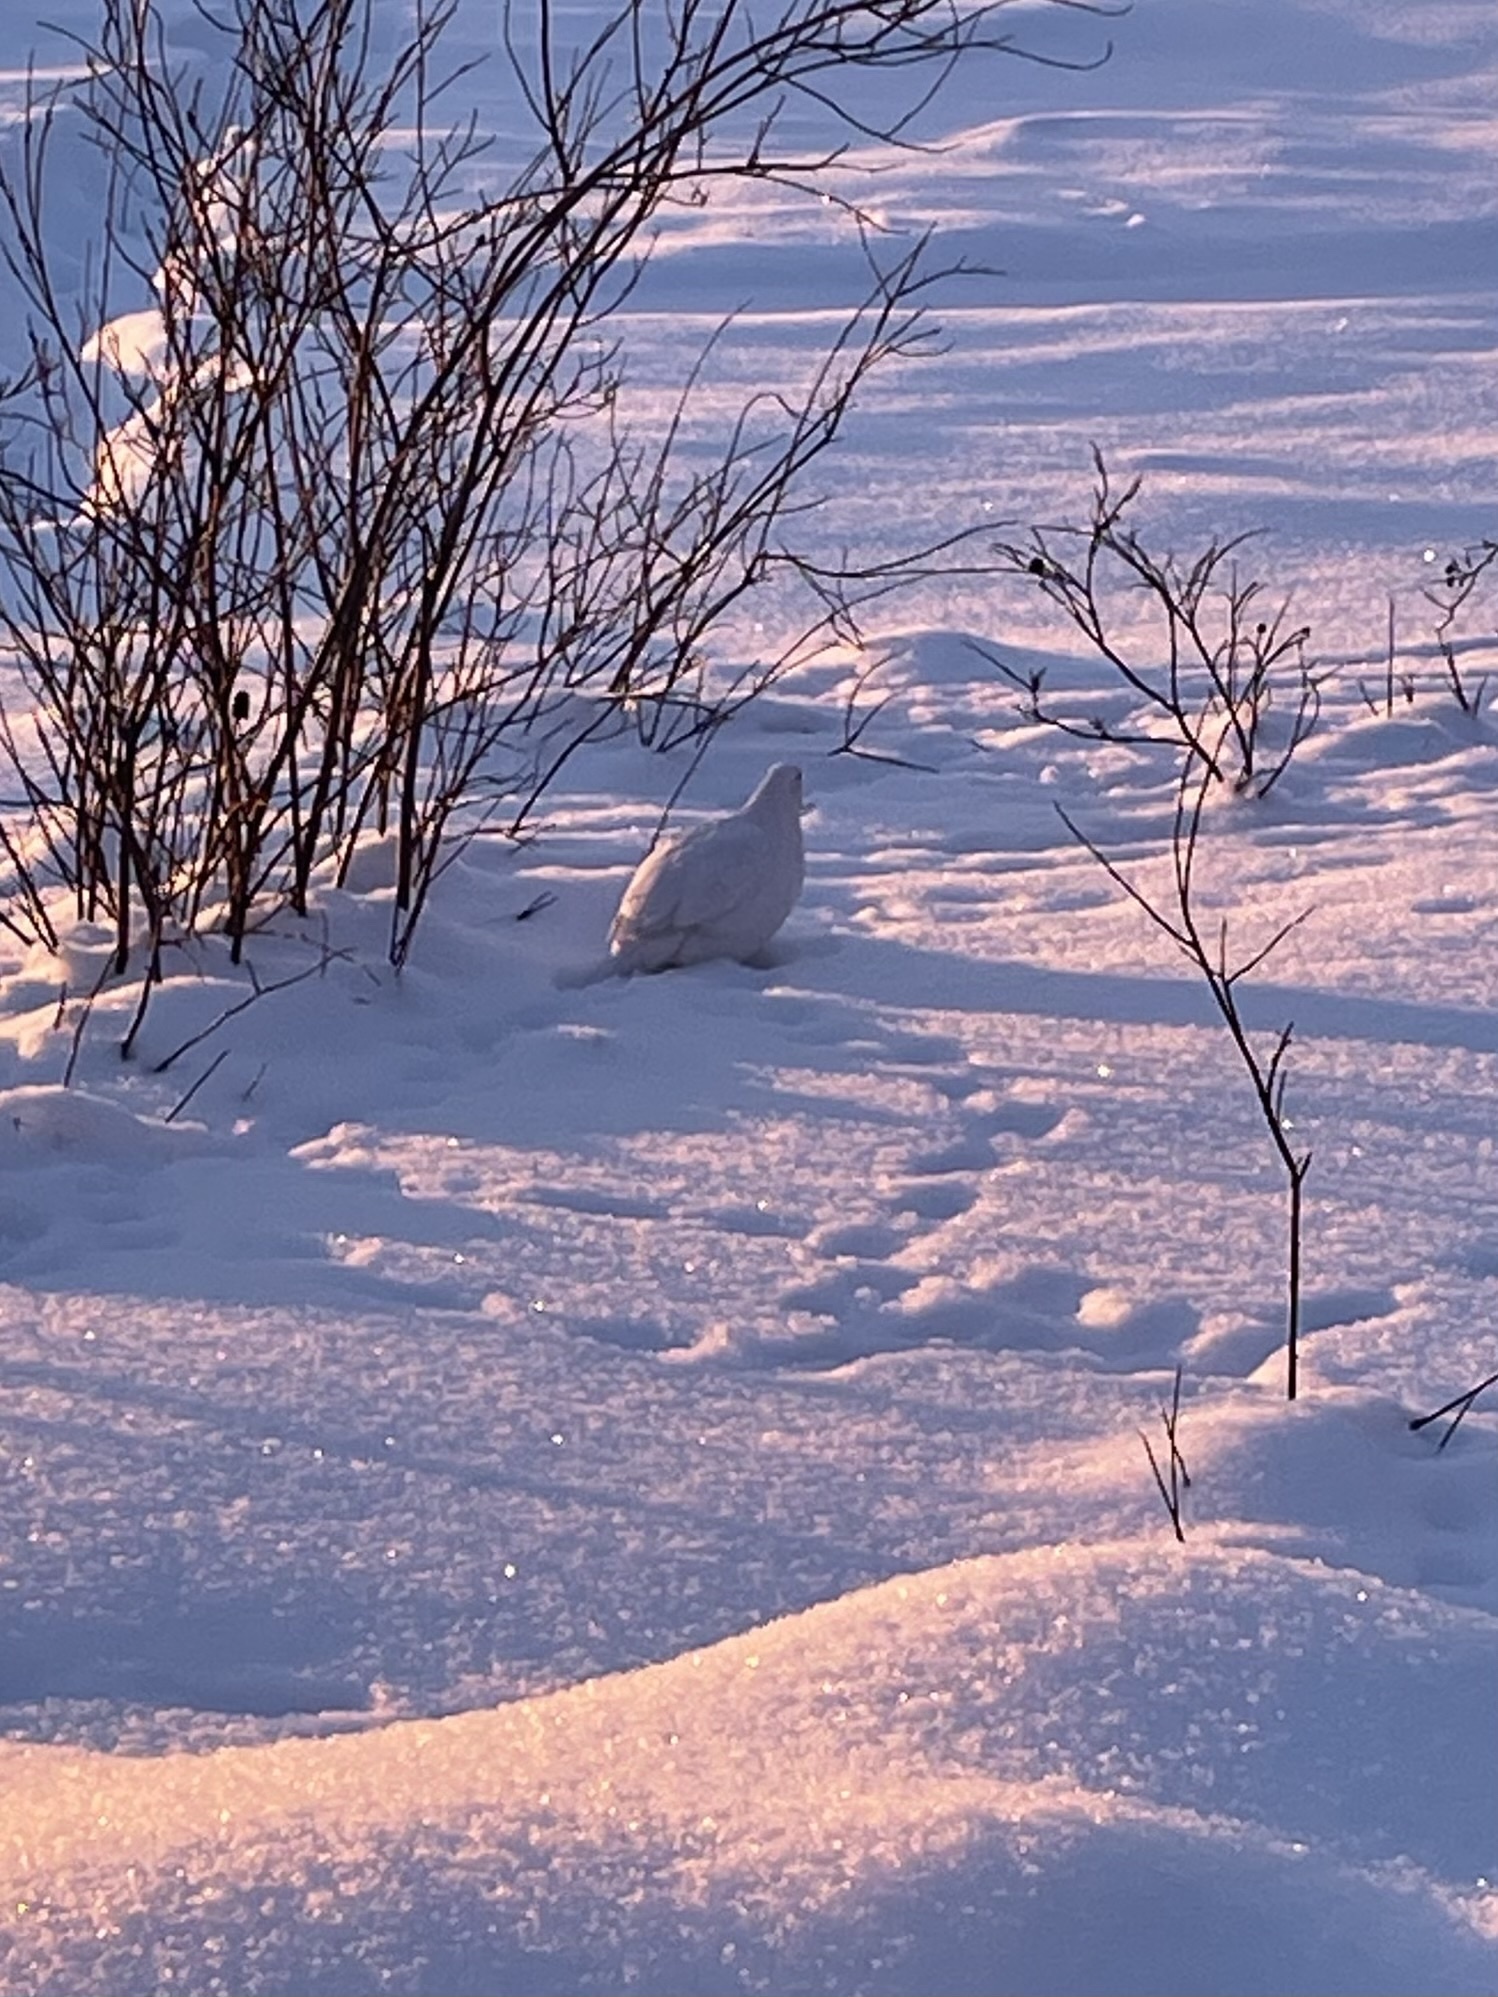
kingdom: Animalia
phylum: Chordata
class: Aves
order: Galliformes
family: Phasianidae
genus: Lagopus
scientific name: Lagopus lagopus
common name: Willow ptarmigan
